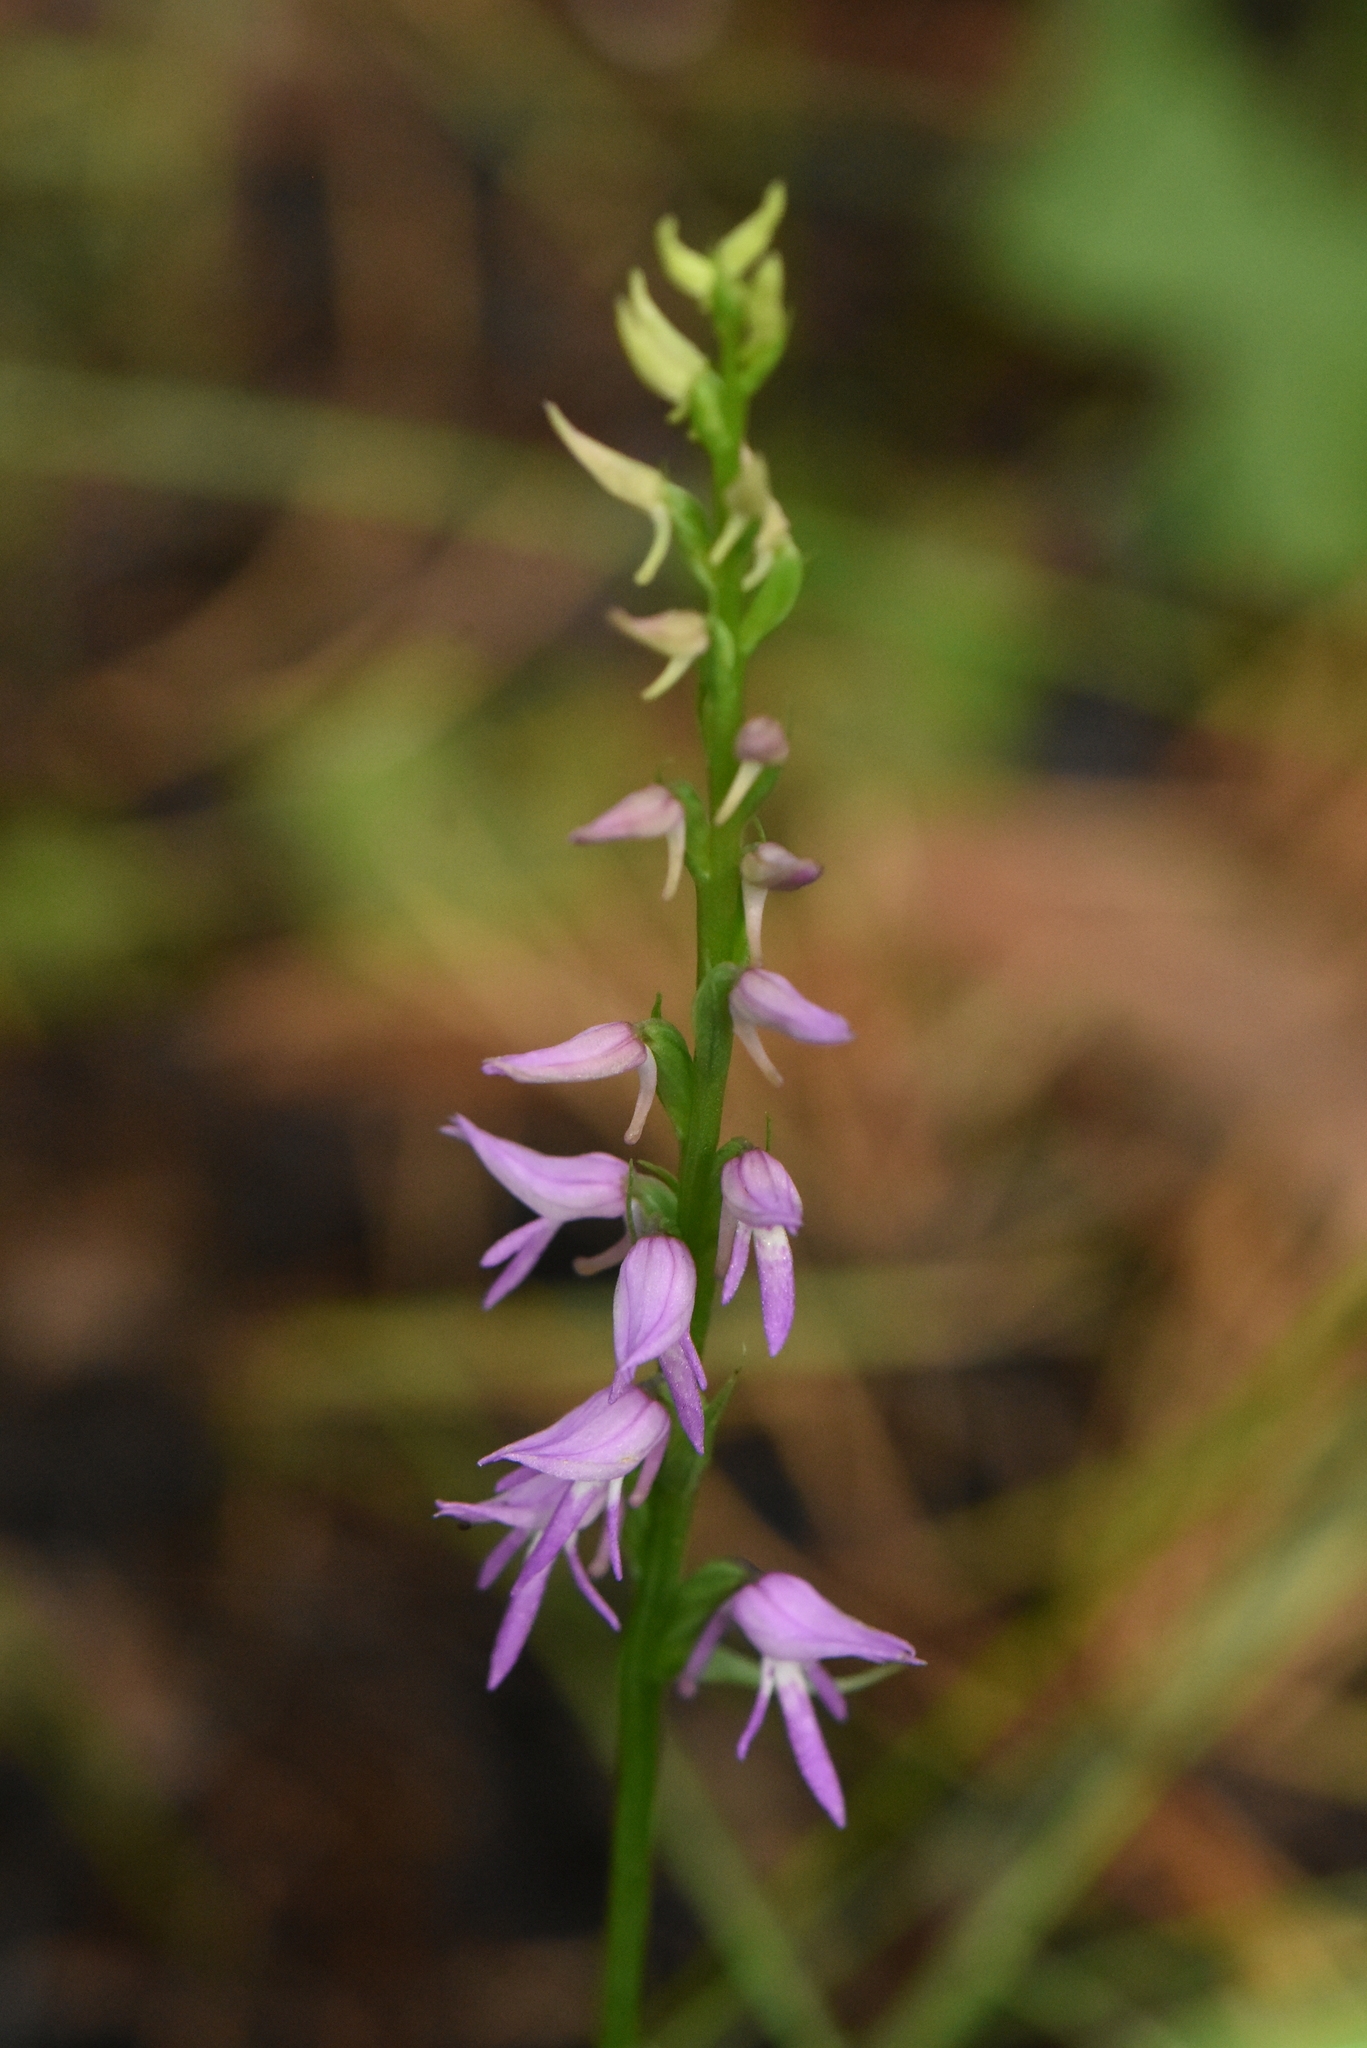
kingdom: Plantae
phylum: Tracheophyta
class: Liliopsida
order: Asparagales
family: Orchidaceae
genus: Hemipilia
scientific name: Hemipilia cucullata
